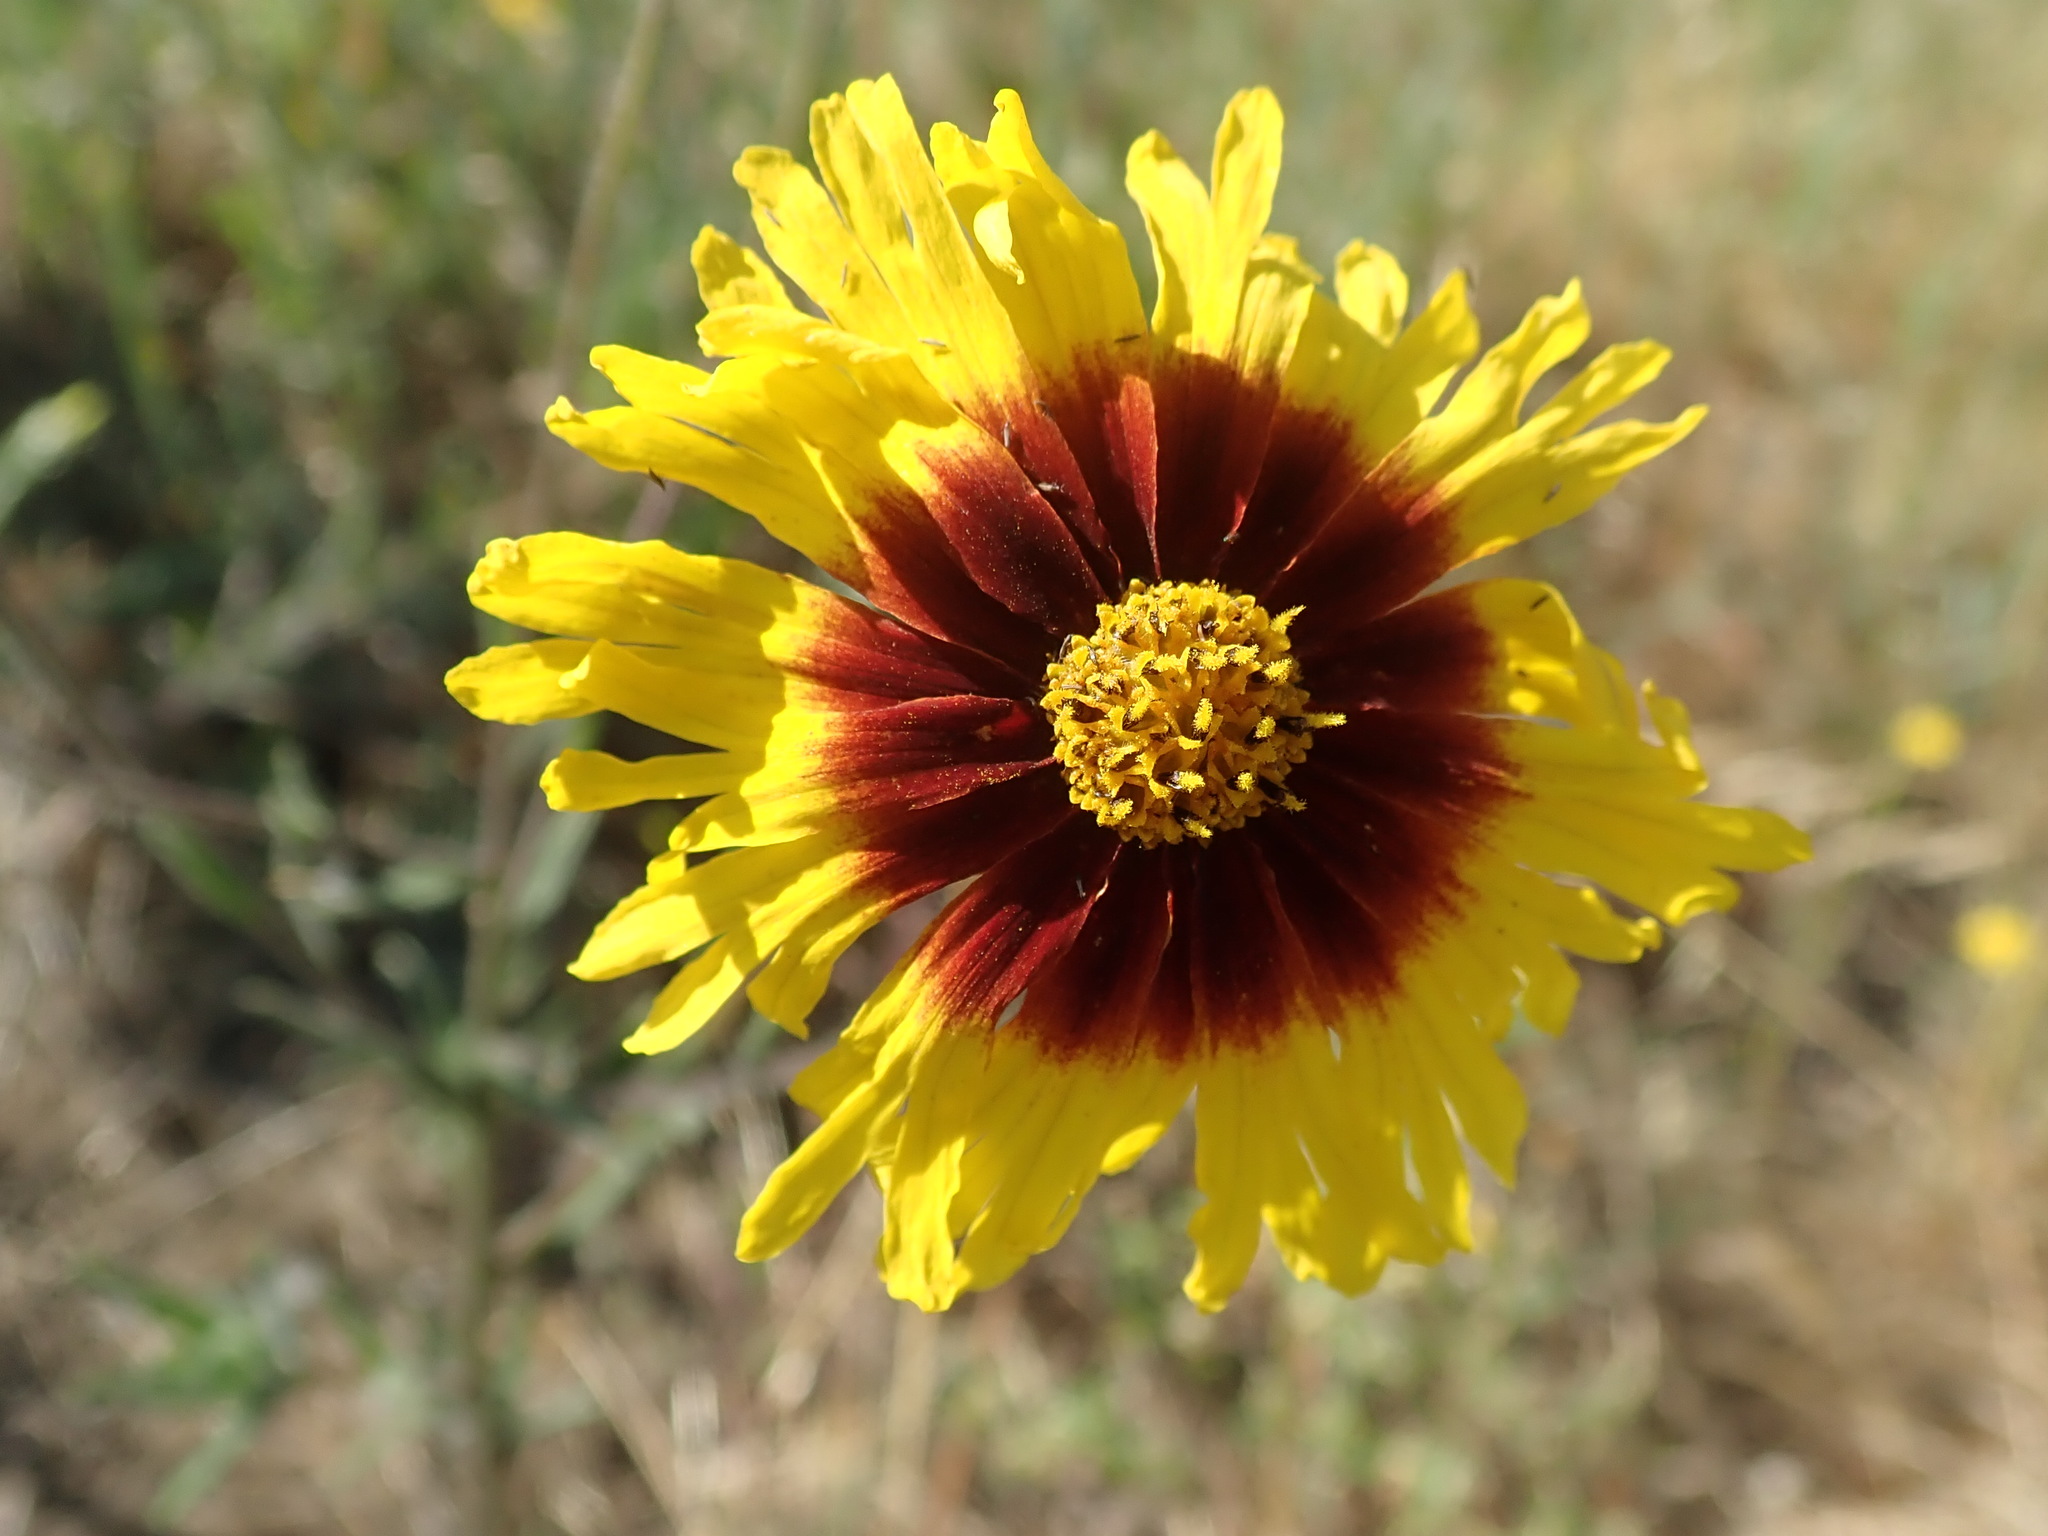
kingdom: Plantae
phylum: Tracheophyta
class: Magnoliopsida
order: Asterales
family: Asteraceae
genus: Madia
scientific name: Madia elegans
